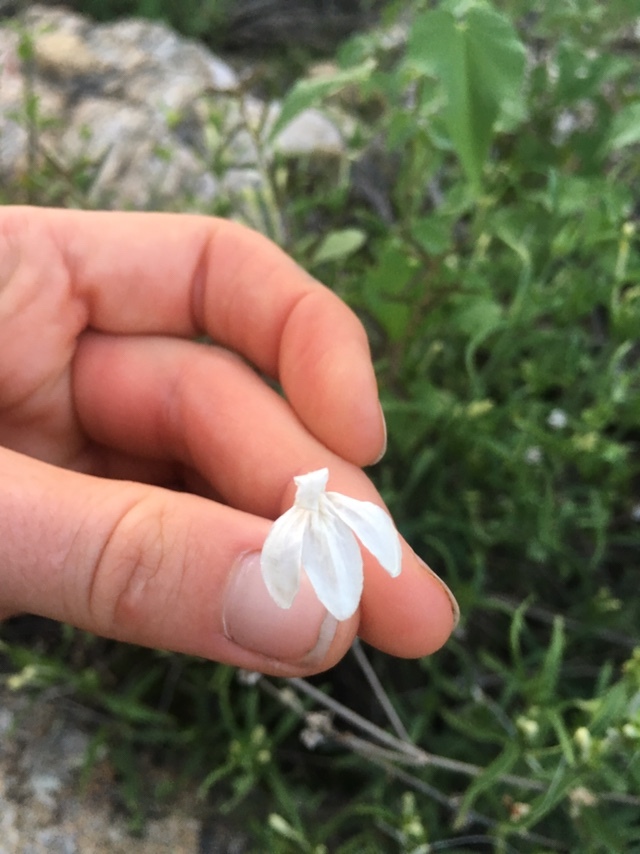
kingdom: Plantae
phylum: Tracheophyta
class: Magnoliopsida
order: Lamiales
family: Acanthaceae
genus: Justicia
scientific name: Justicia longii
